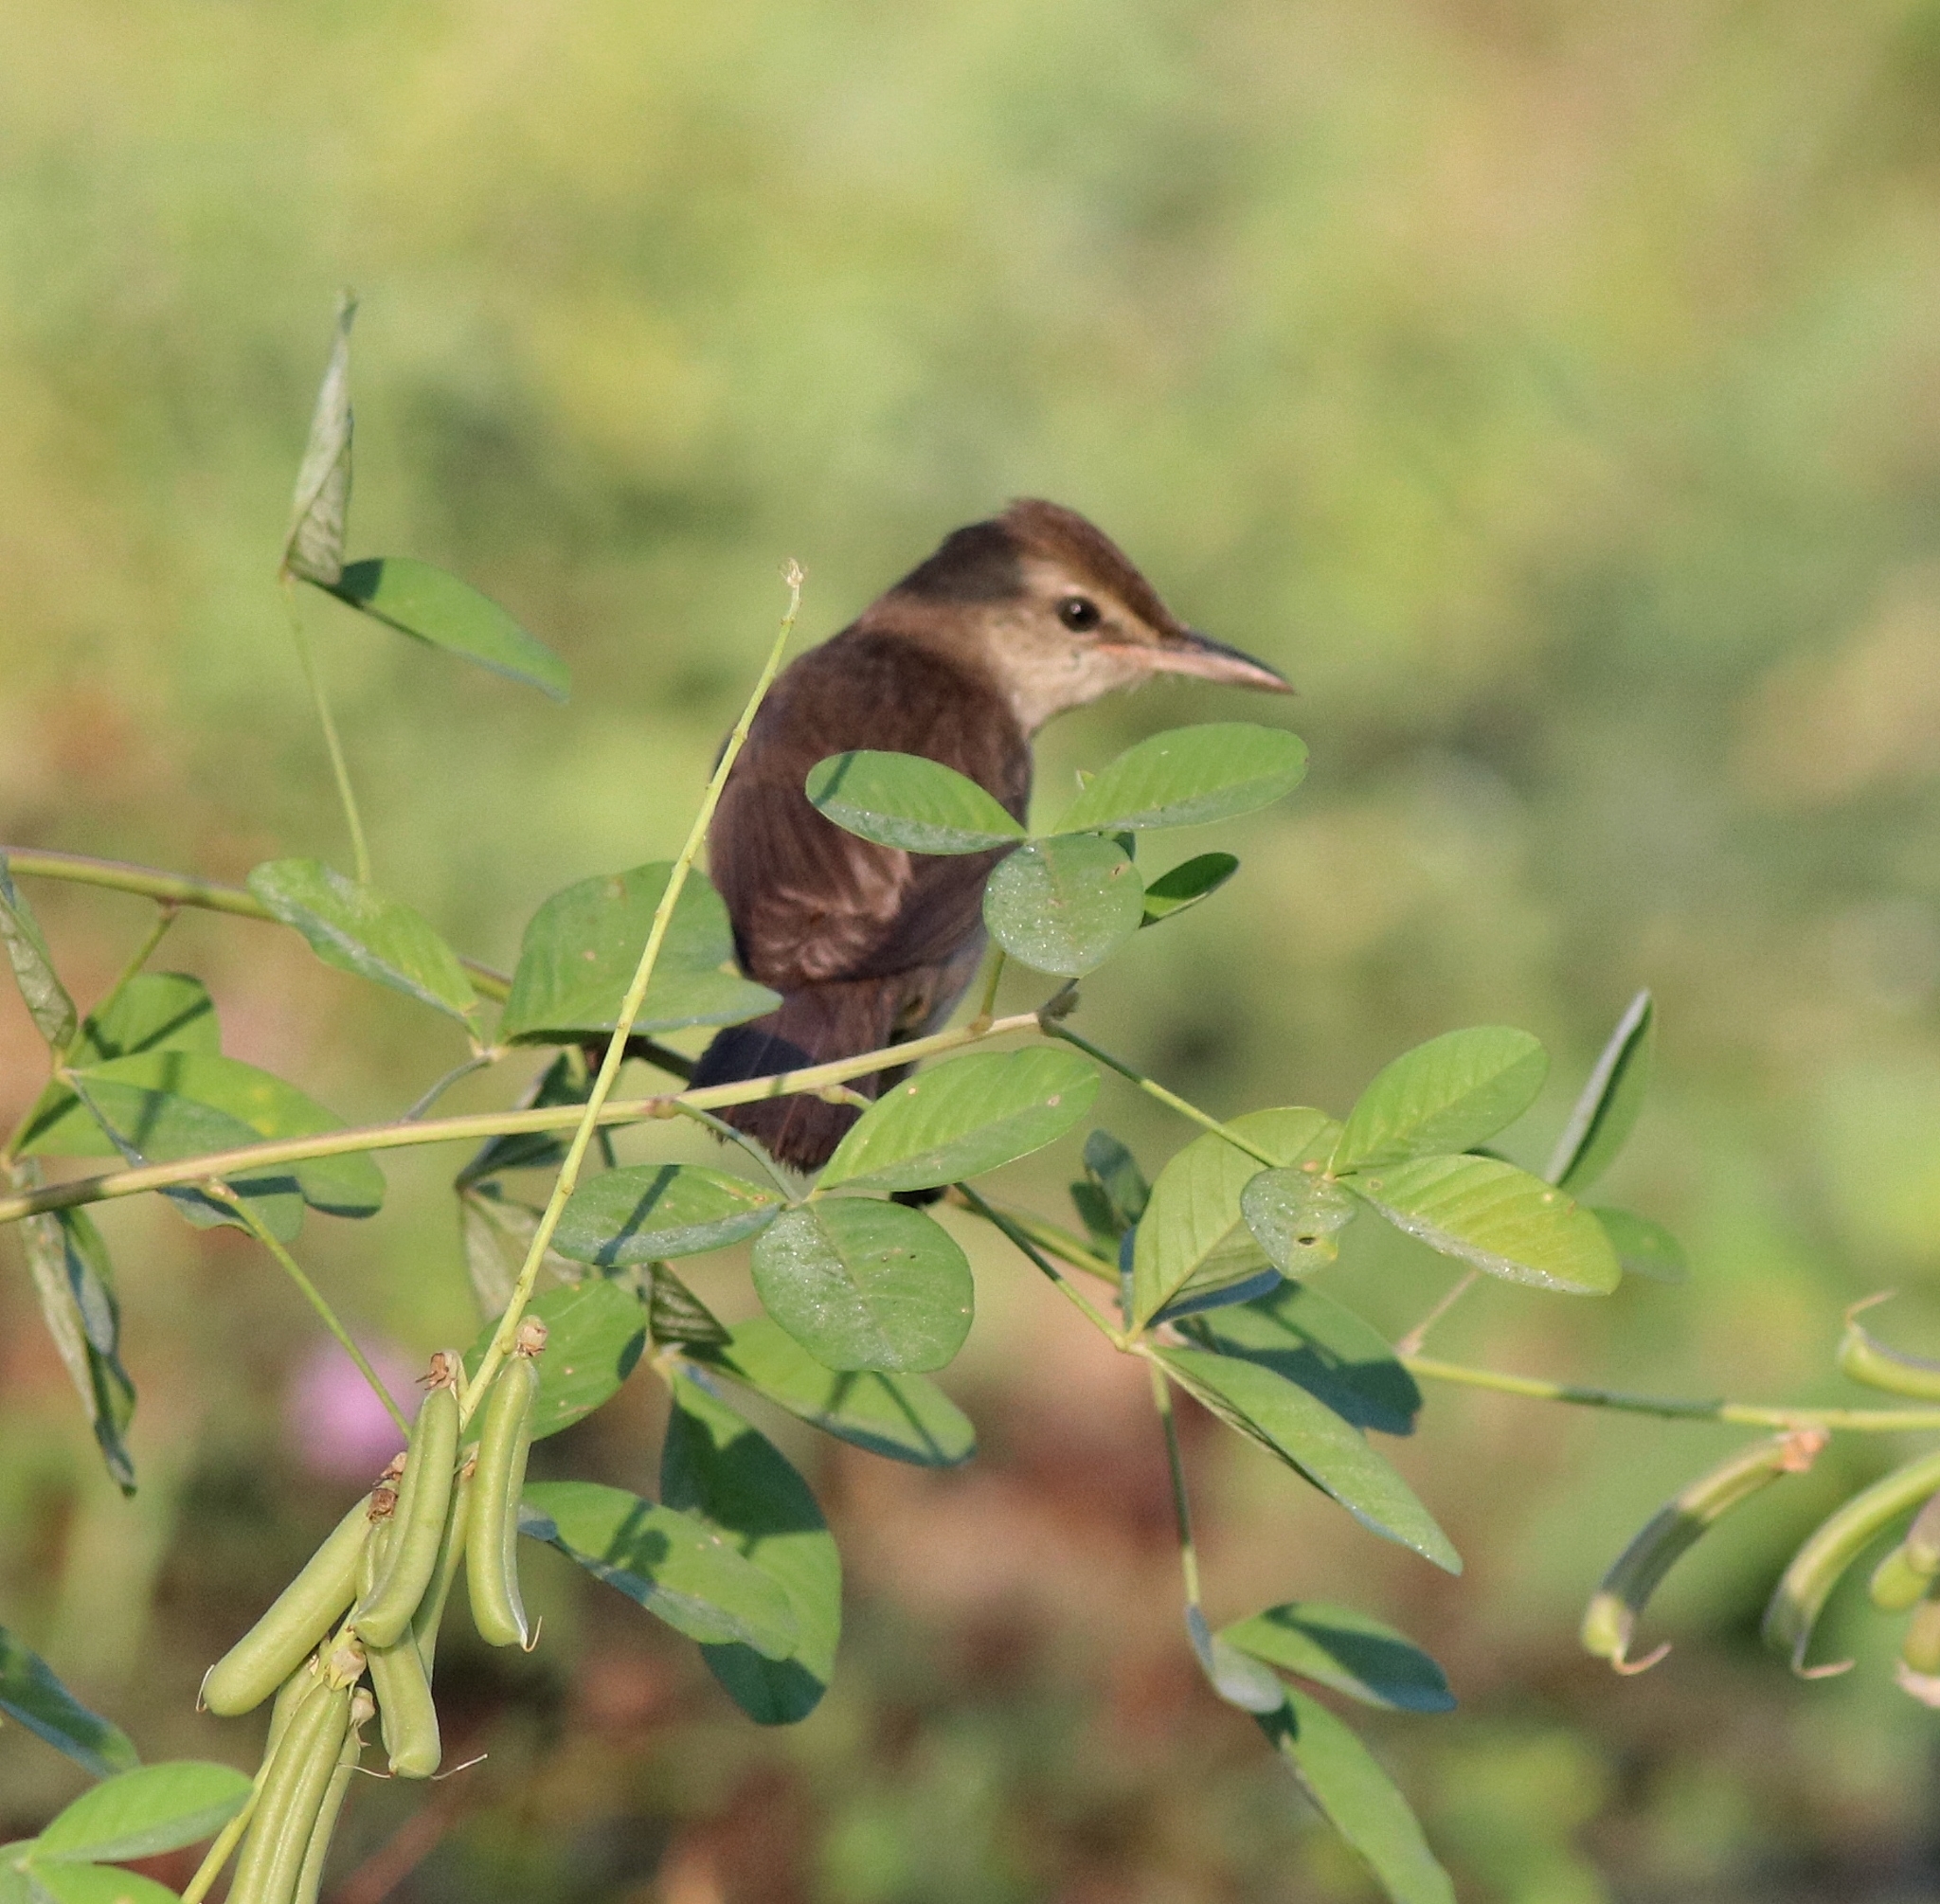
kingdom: Animalia
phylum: Chordata
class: Aves
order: Passeriformes
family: Acrocephalidae
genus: Acrocephalus
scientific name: Acrocephalus stentoreus
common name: Clamorous reed warbler
